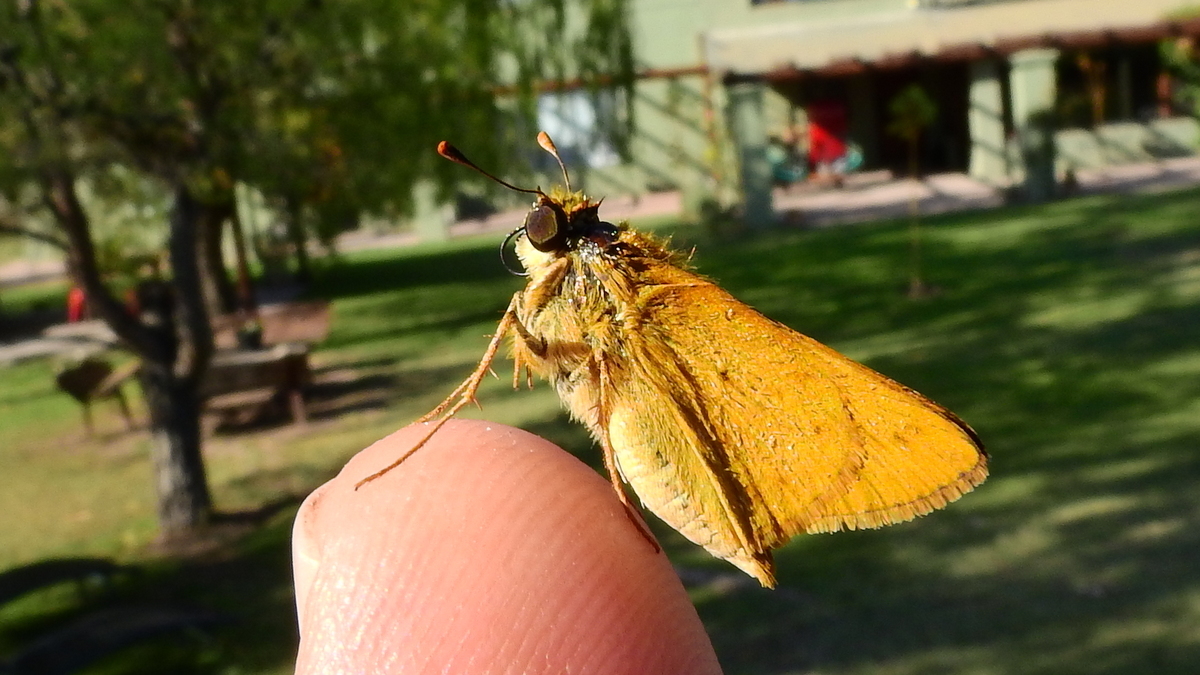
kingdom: Animalia
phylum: Arthropoda
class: Insecta
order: Lepidoptera
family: Hesperiidae
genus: Hylephila
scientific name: Hylephila phyleus
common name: Fiery skipper
